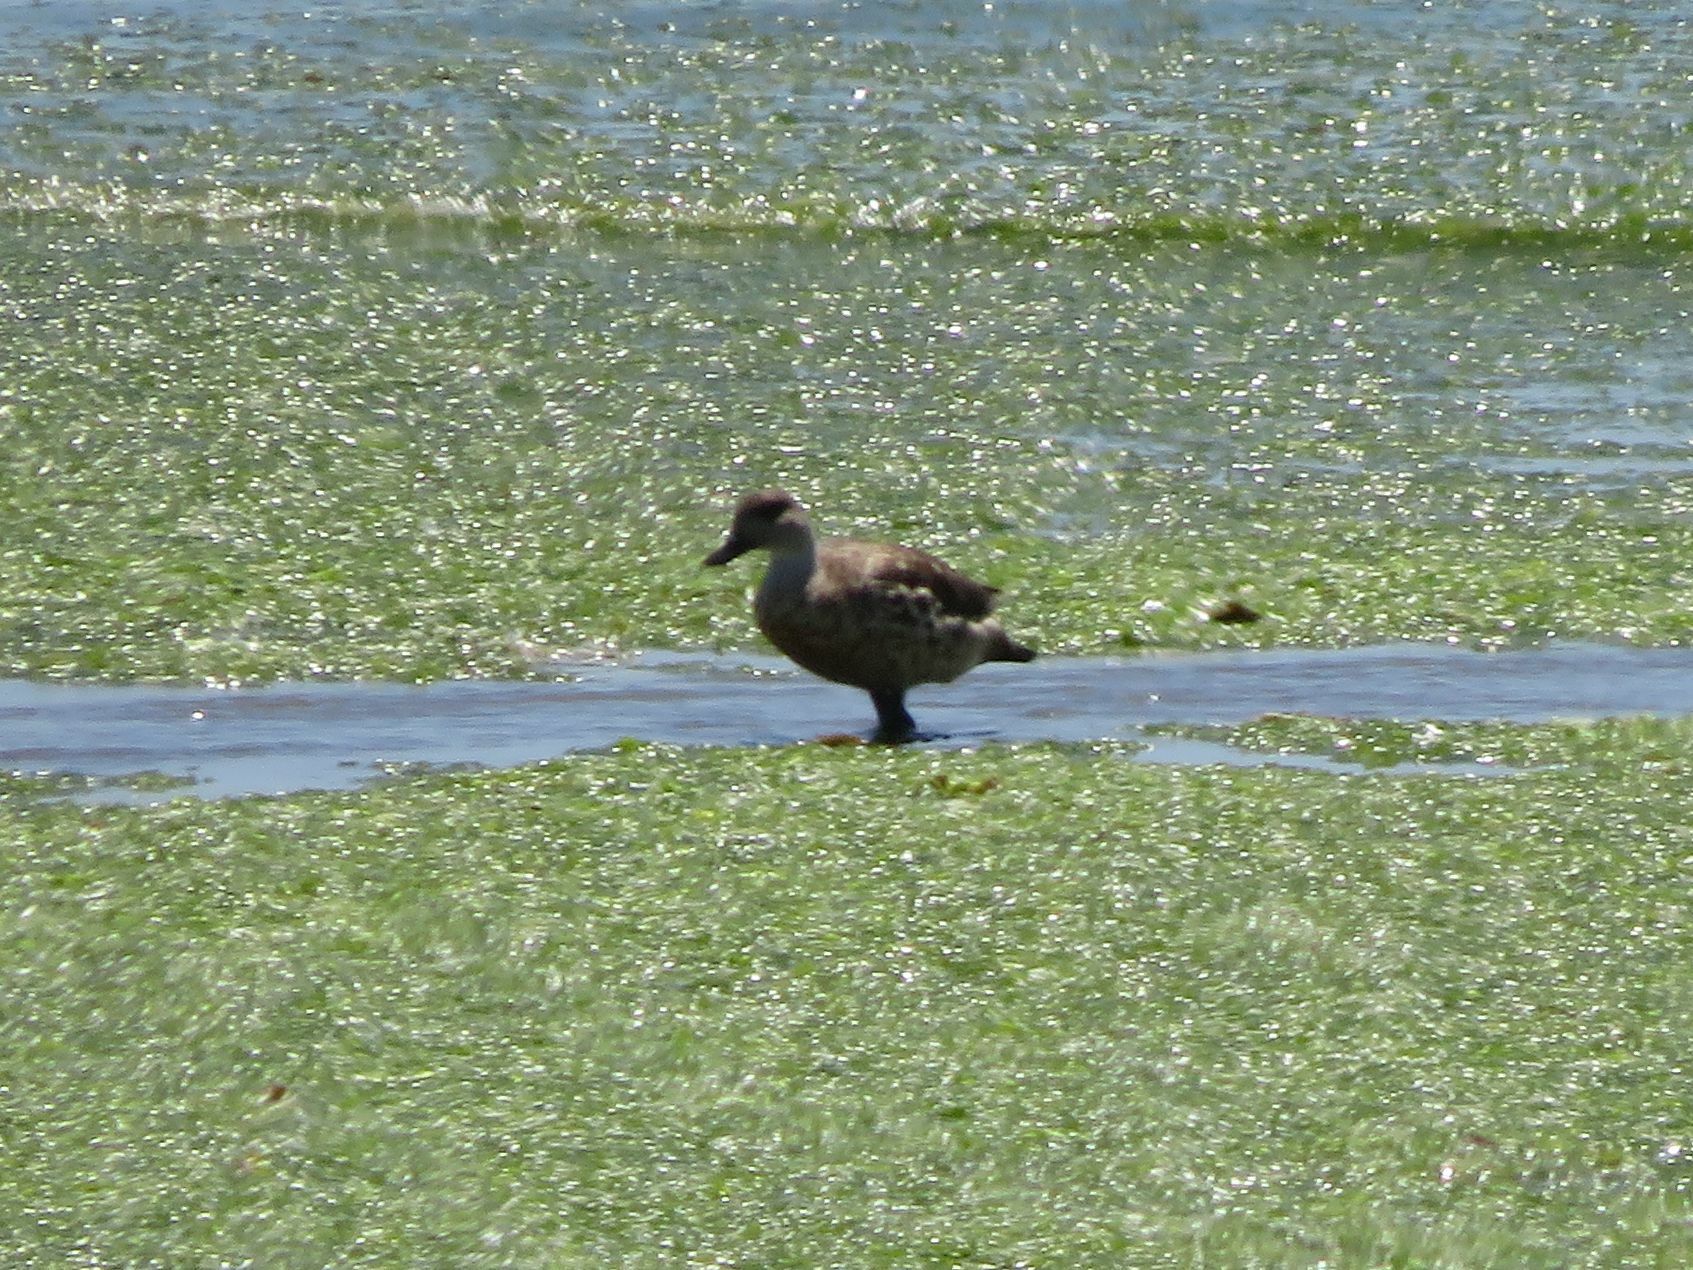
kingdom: Animalia
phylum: Chordata
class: Aves
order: Anseriformes
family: Anatidae
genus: Lophonetta
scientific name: Lophonetta specularioides
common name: Crested duck
